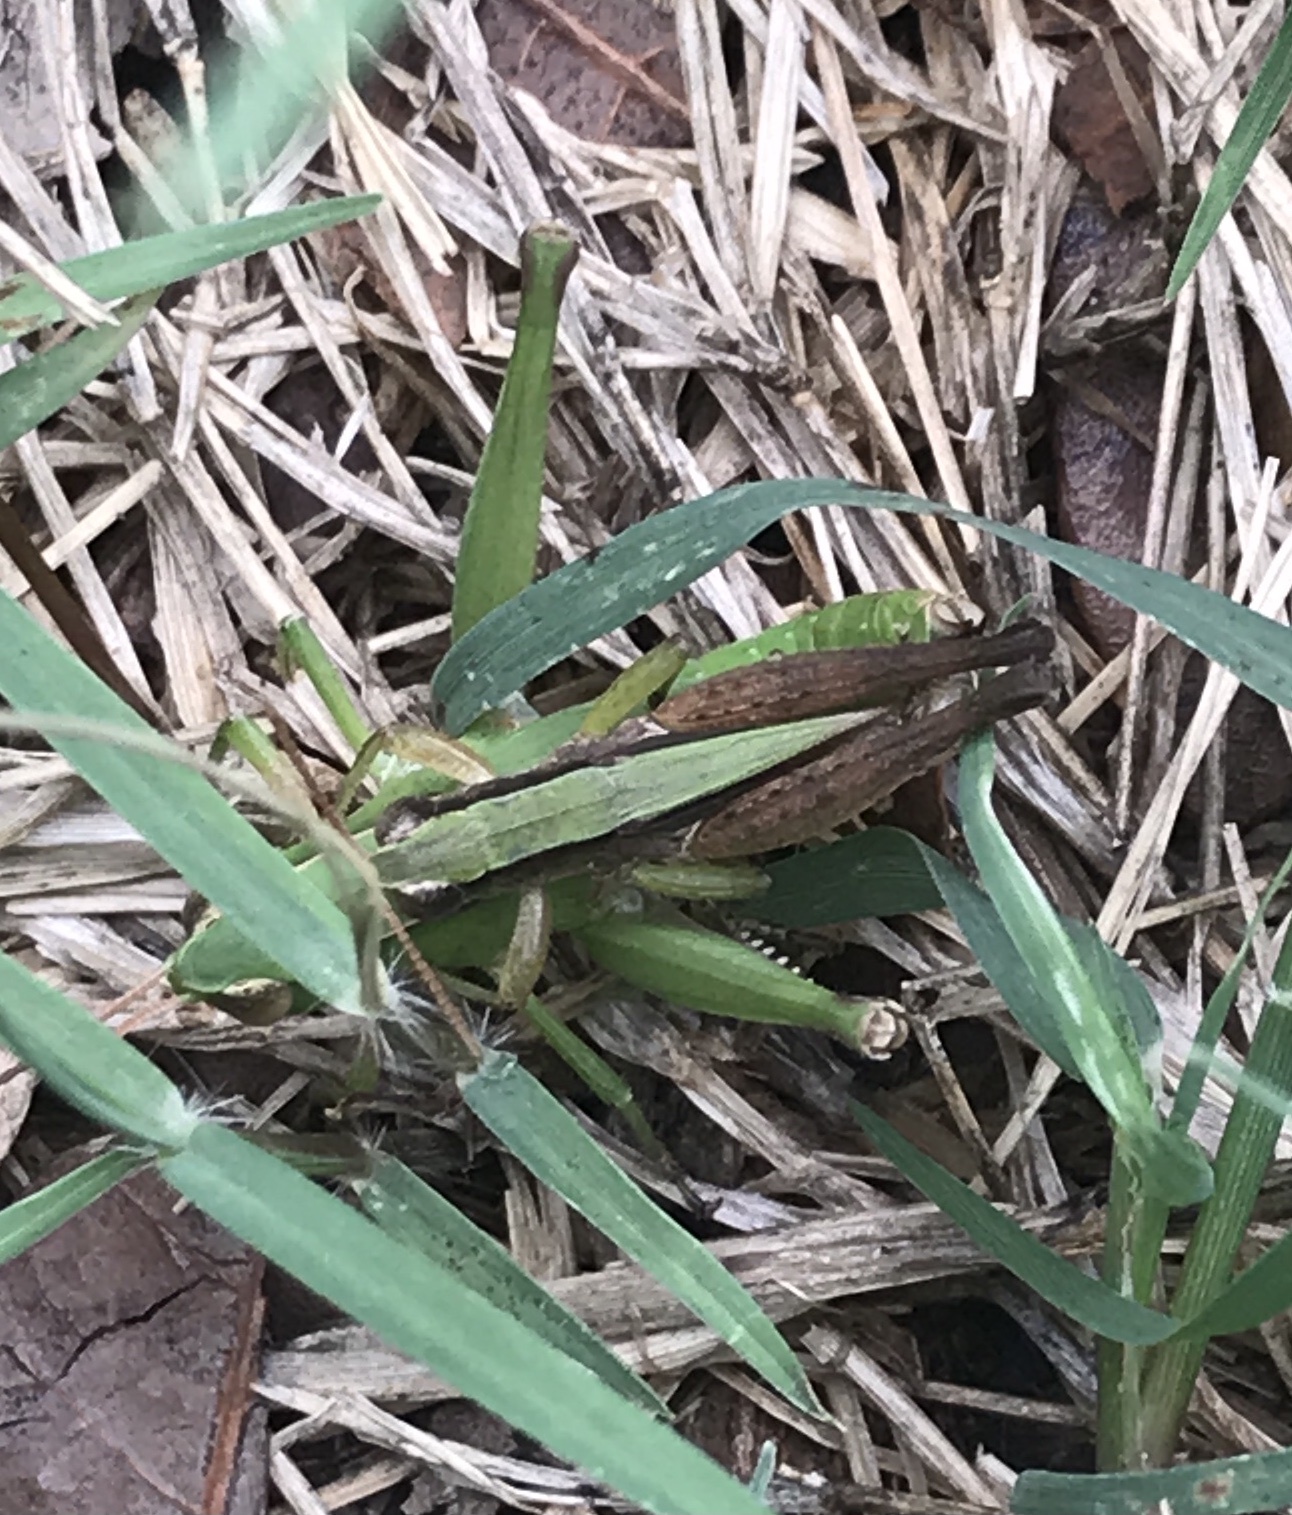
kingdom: Animalia
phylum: Arthropoda
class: Insecta
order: Orthoptera
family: Acrididae
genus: Dichromorpha
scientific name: Dichromorpha viridis
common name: Short-winged green grasshopper
